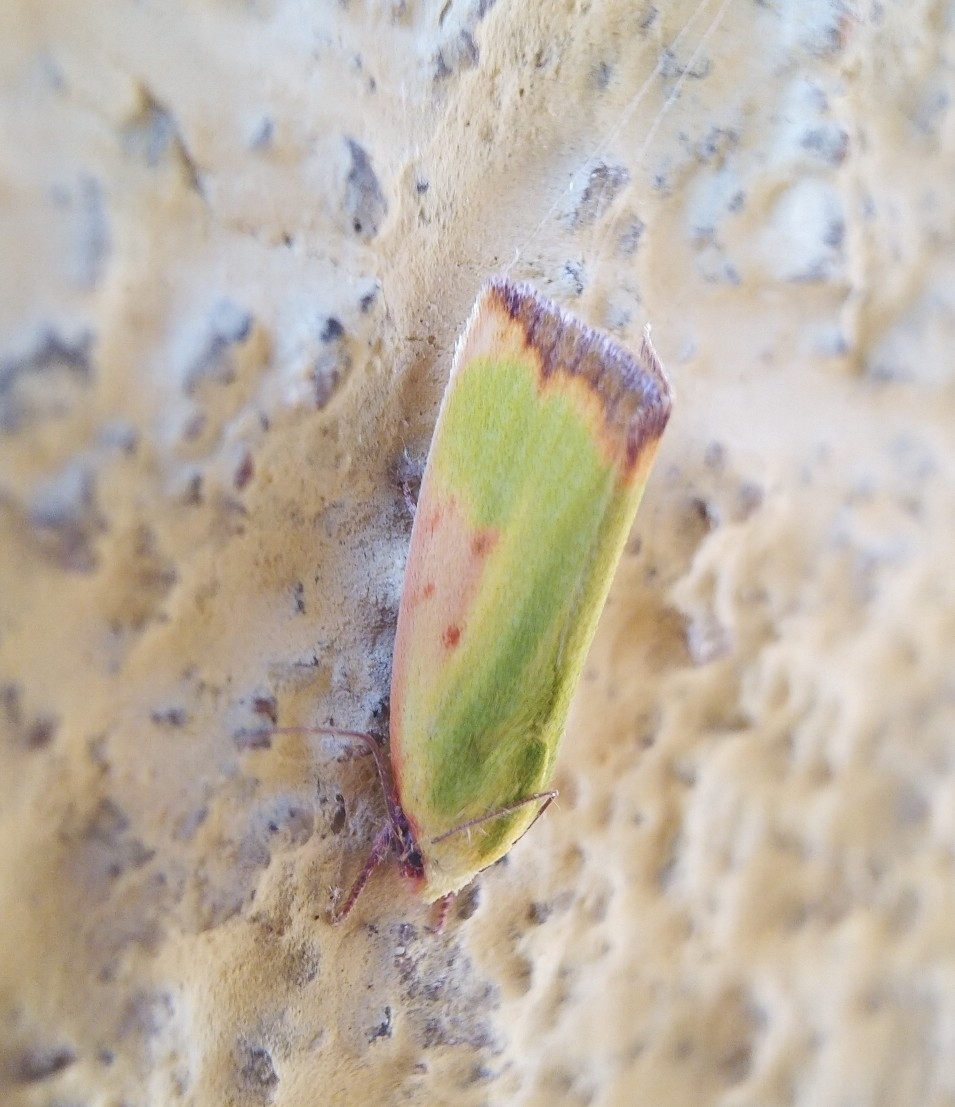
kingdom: Animalia
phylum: Arthropoda
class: Insecta
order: Lepidoptera
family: Nolidae
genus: Earias
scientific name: Earias cupreoviridis
